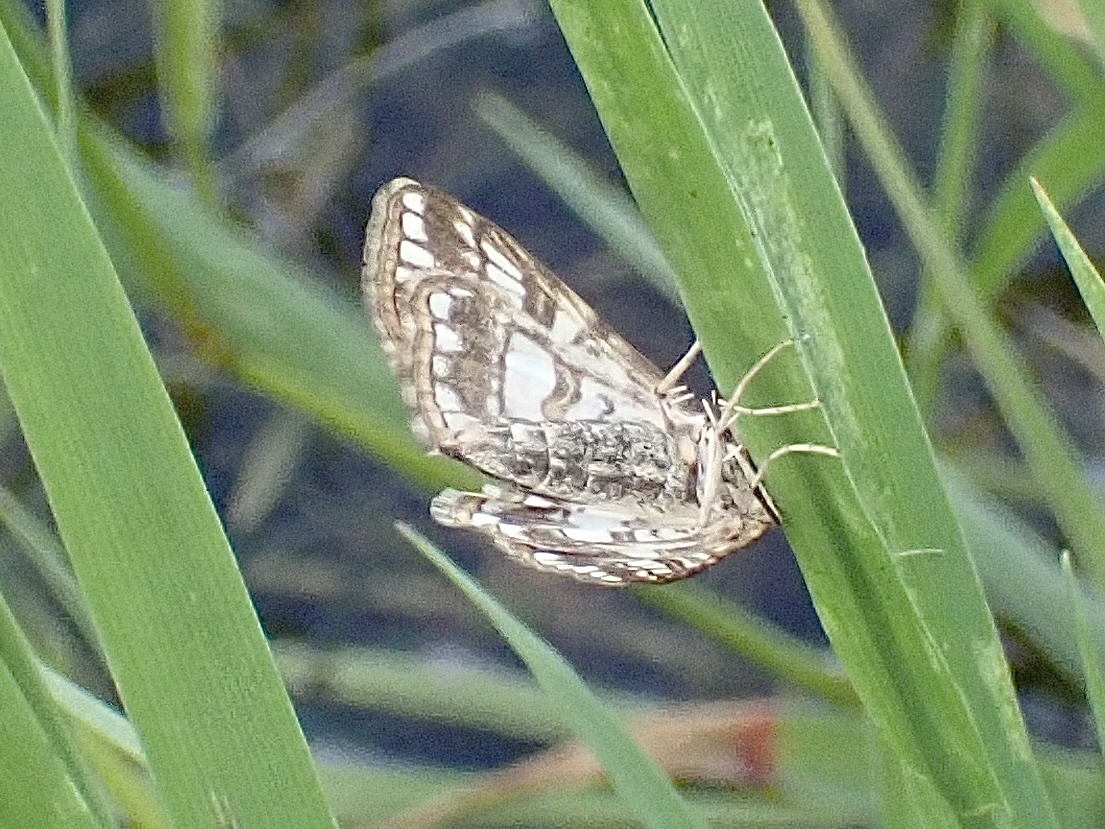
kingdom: Animalia
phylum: Arthropoda
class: Insecta
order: Lepidoptera
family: Crambidae
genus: Elophila
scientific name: Elophila nymphaeata
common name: Brown china-mark
